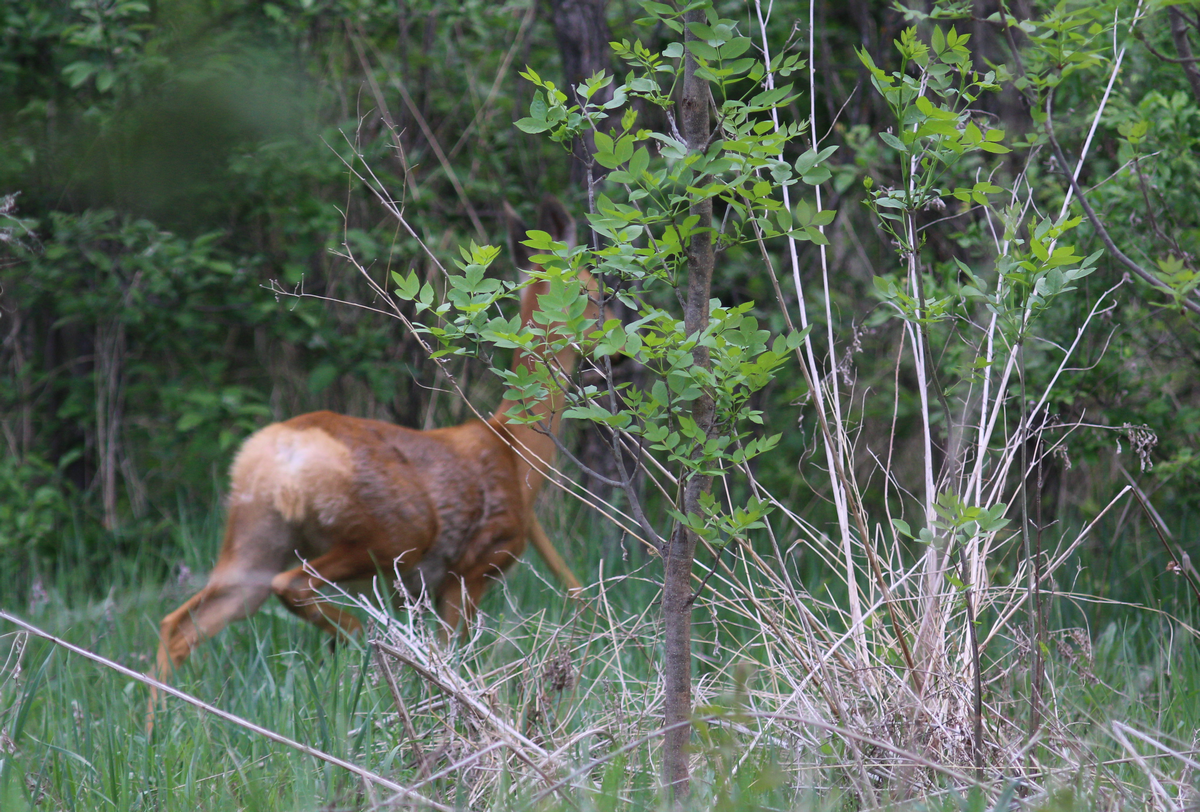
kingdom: Animalia
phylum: Chordata
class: Mammalia
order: Artiodactyla
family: Cervidae
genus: Capreolus
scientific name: Capreolus pygargus
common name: Siberian roe
